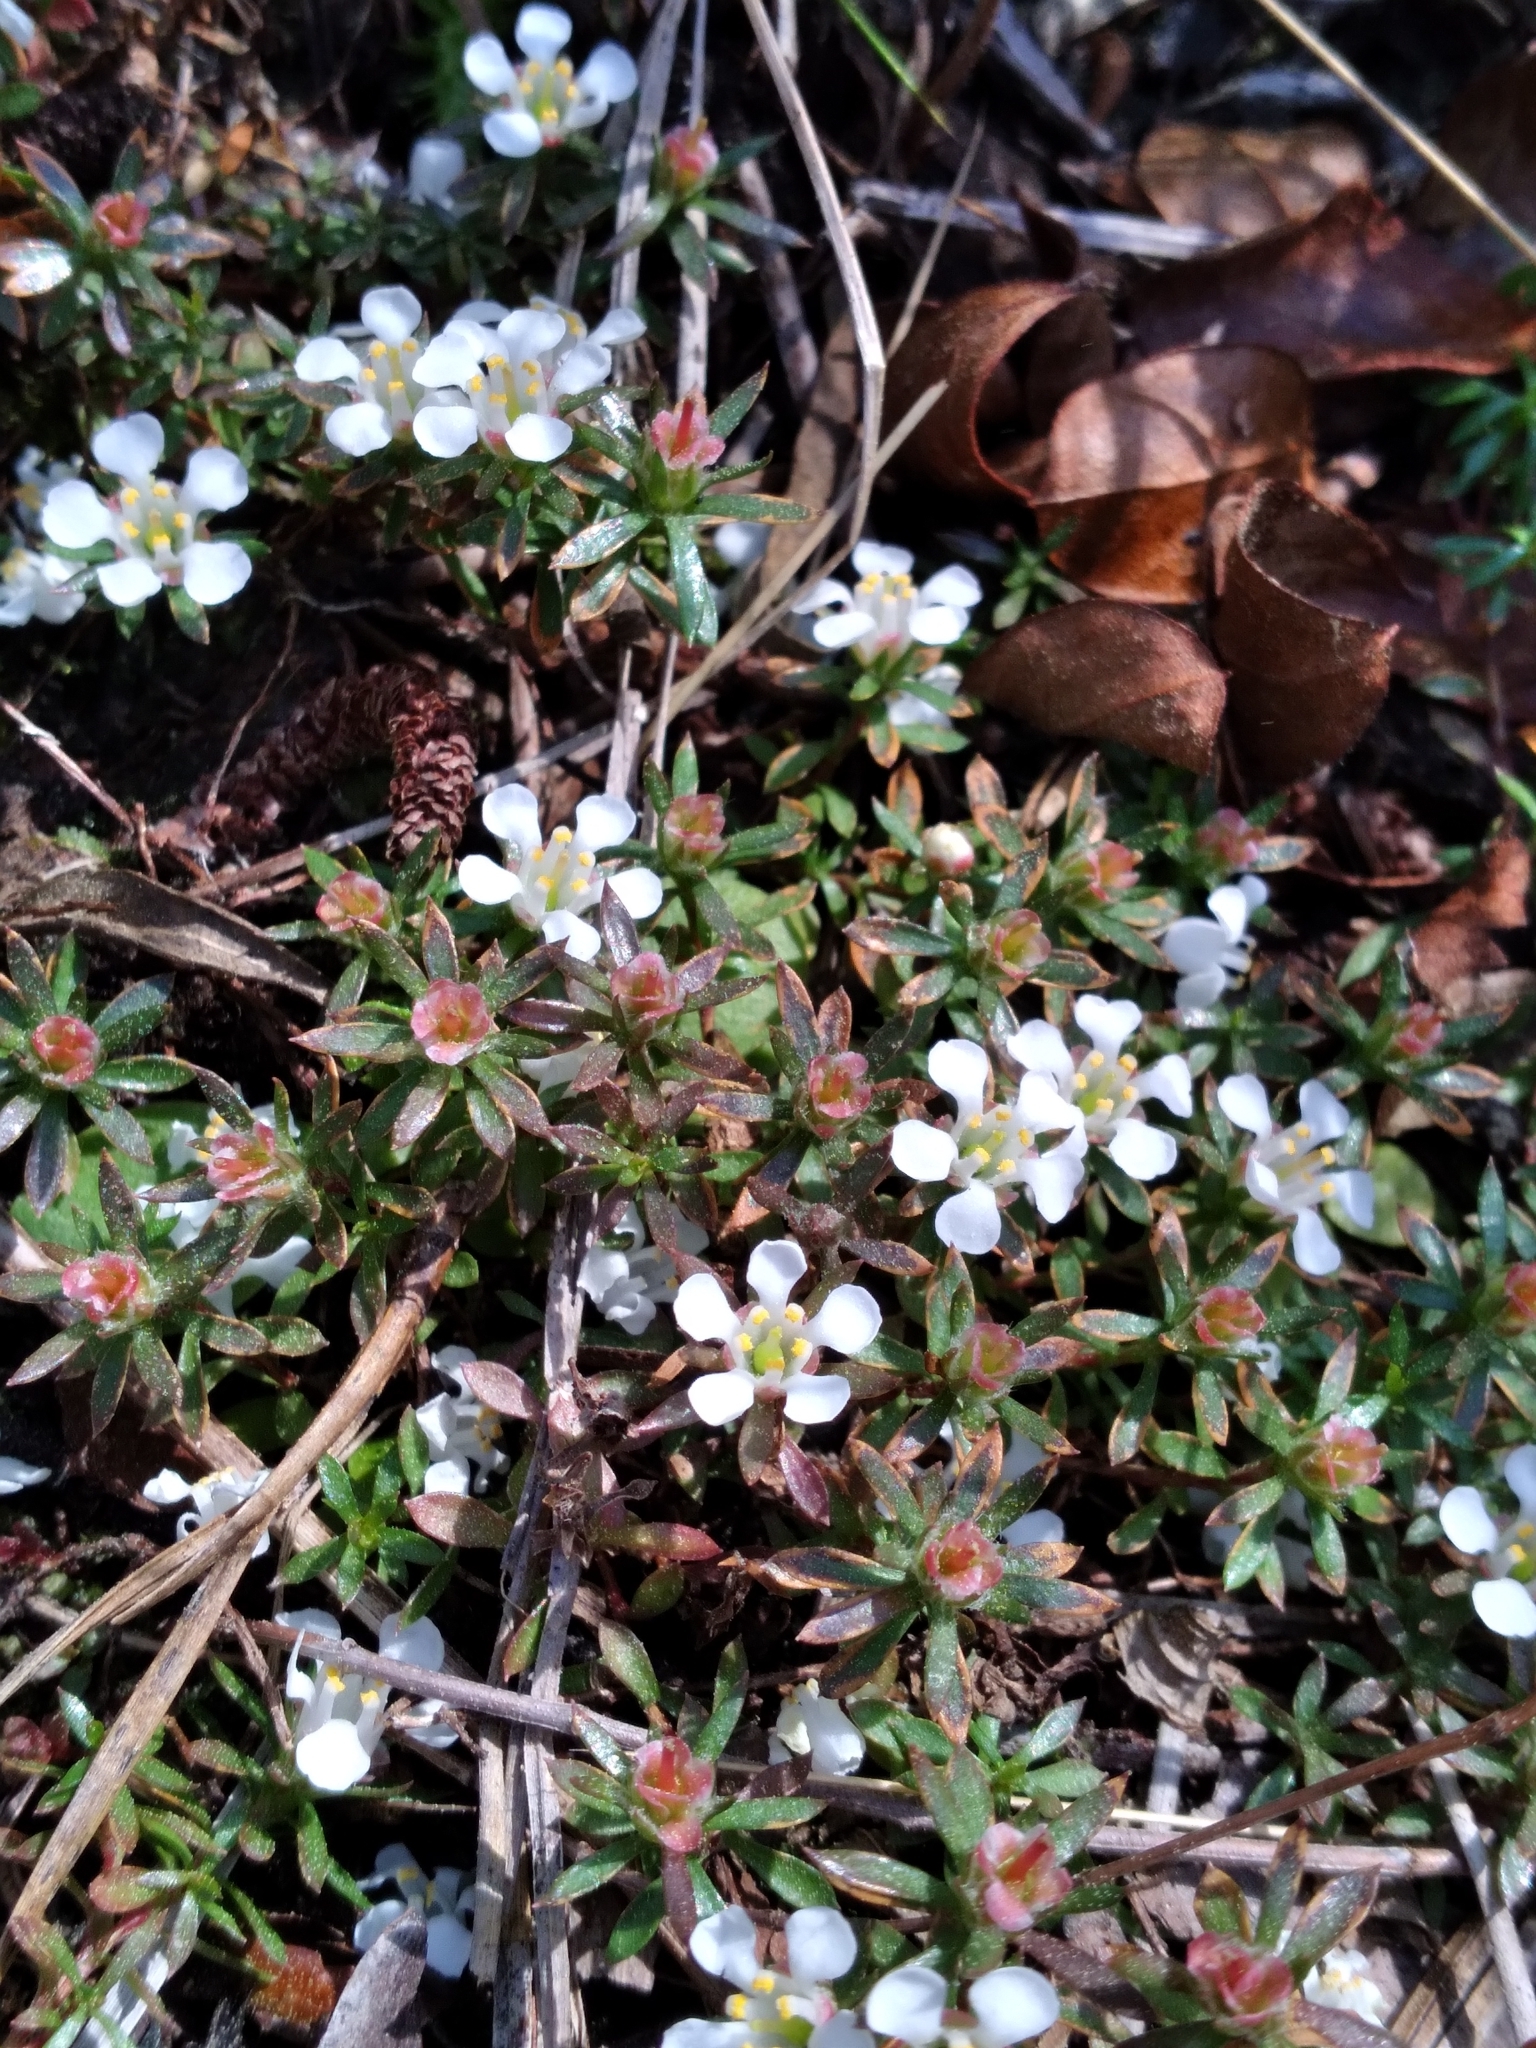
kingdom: Plantae
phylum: Tracheophyta
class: Magnoliopsida
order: Ericales
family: Diapensiaceae
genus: Pyxidanthera
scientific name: Pyxidanthera barbulata
